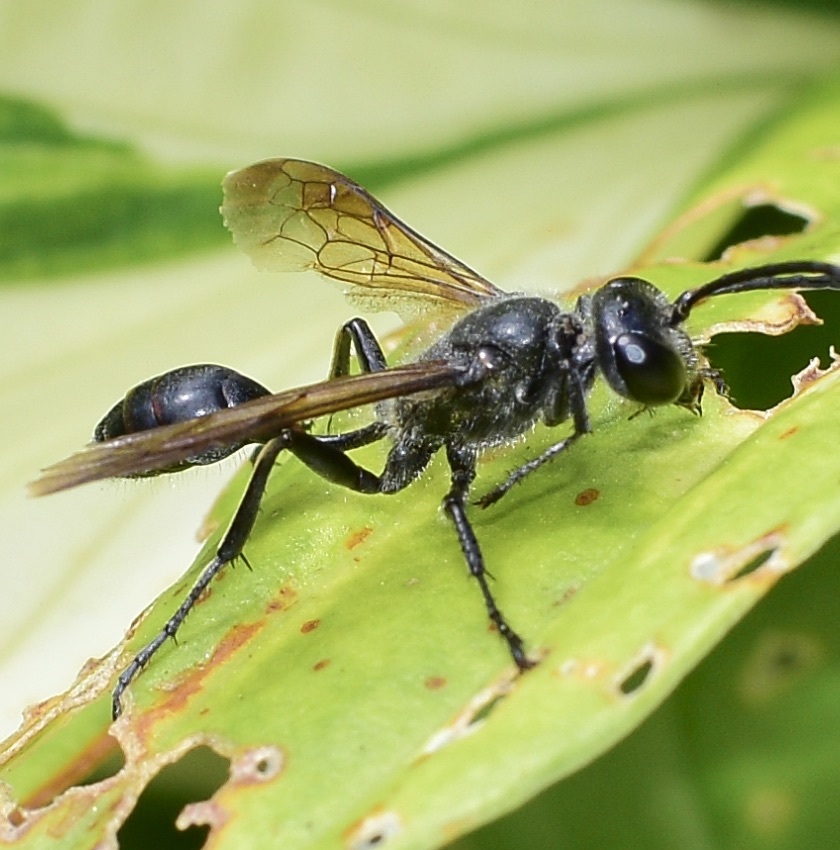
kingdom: Animalia
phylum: Arthropoda
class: Insecta
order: Hymenoptera
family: Sphecidae
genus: Isodontia
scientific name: Isodontia mexicana
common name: Mud dauber
